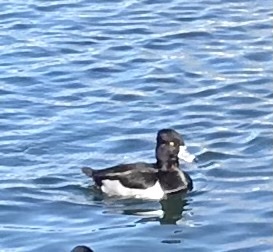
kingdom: Animalia
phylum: Chordata
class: Aves
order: Anseriformes
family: Anatidae
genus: Aythya
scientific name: Aythya collaris
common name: Ring-necked duck
